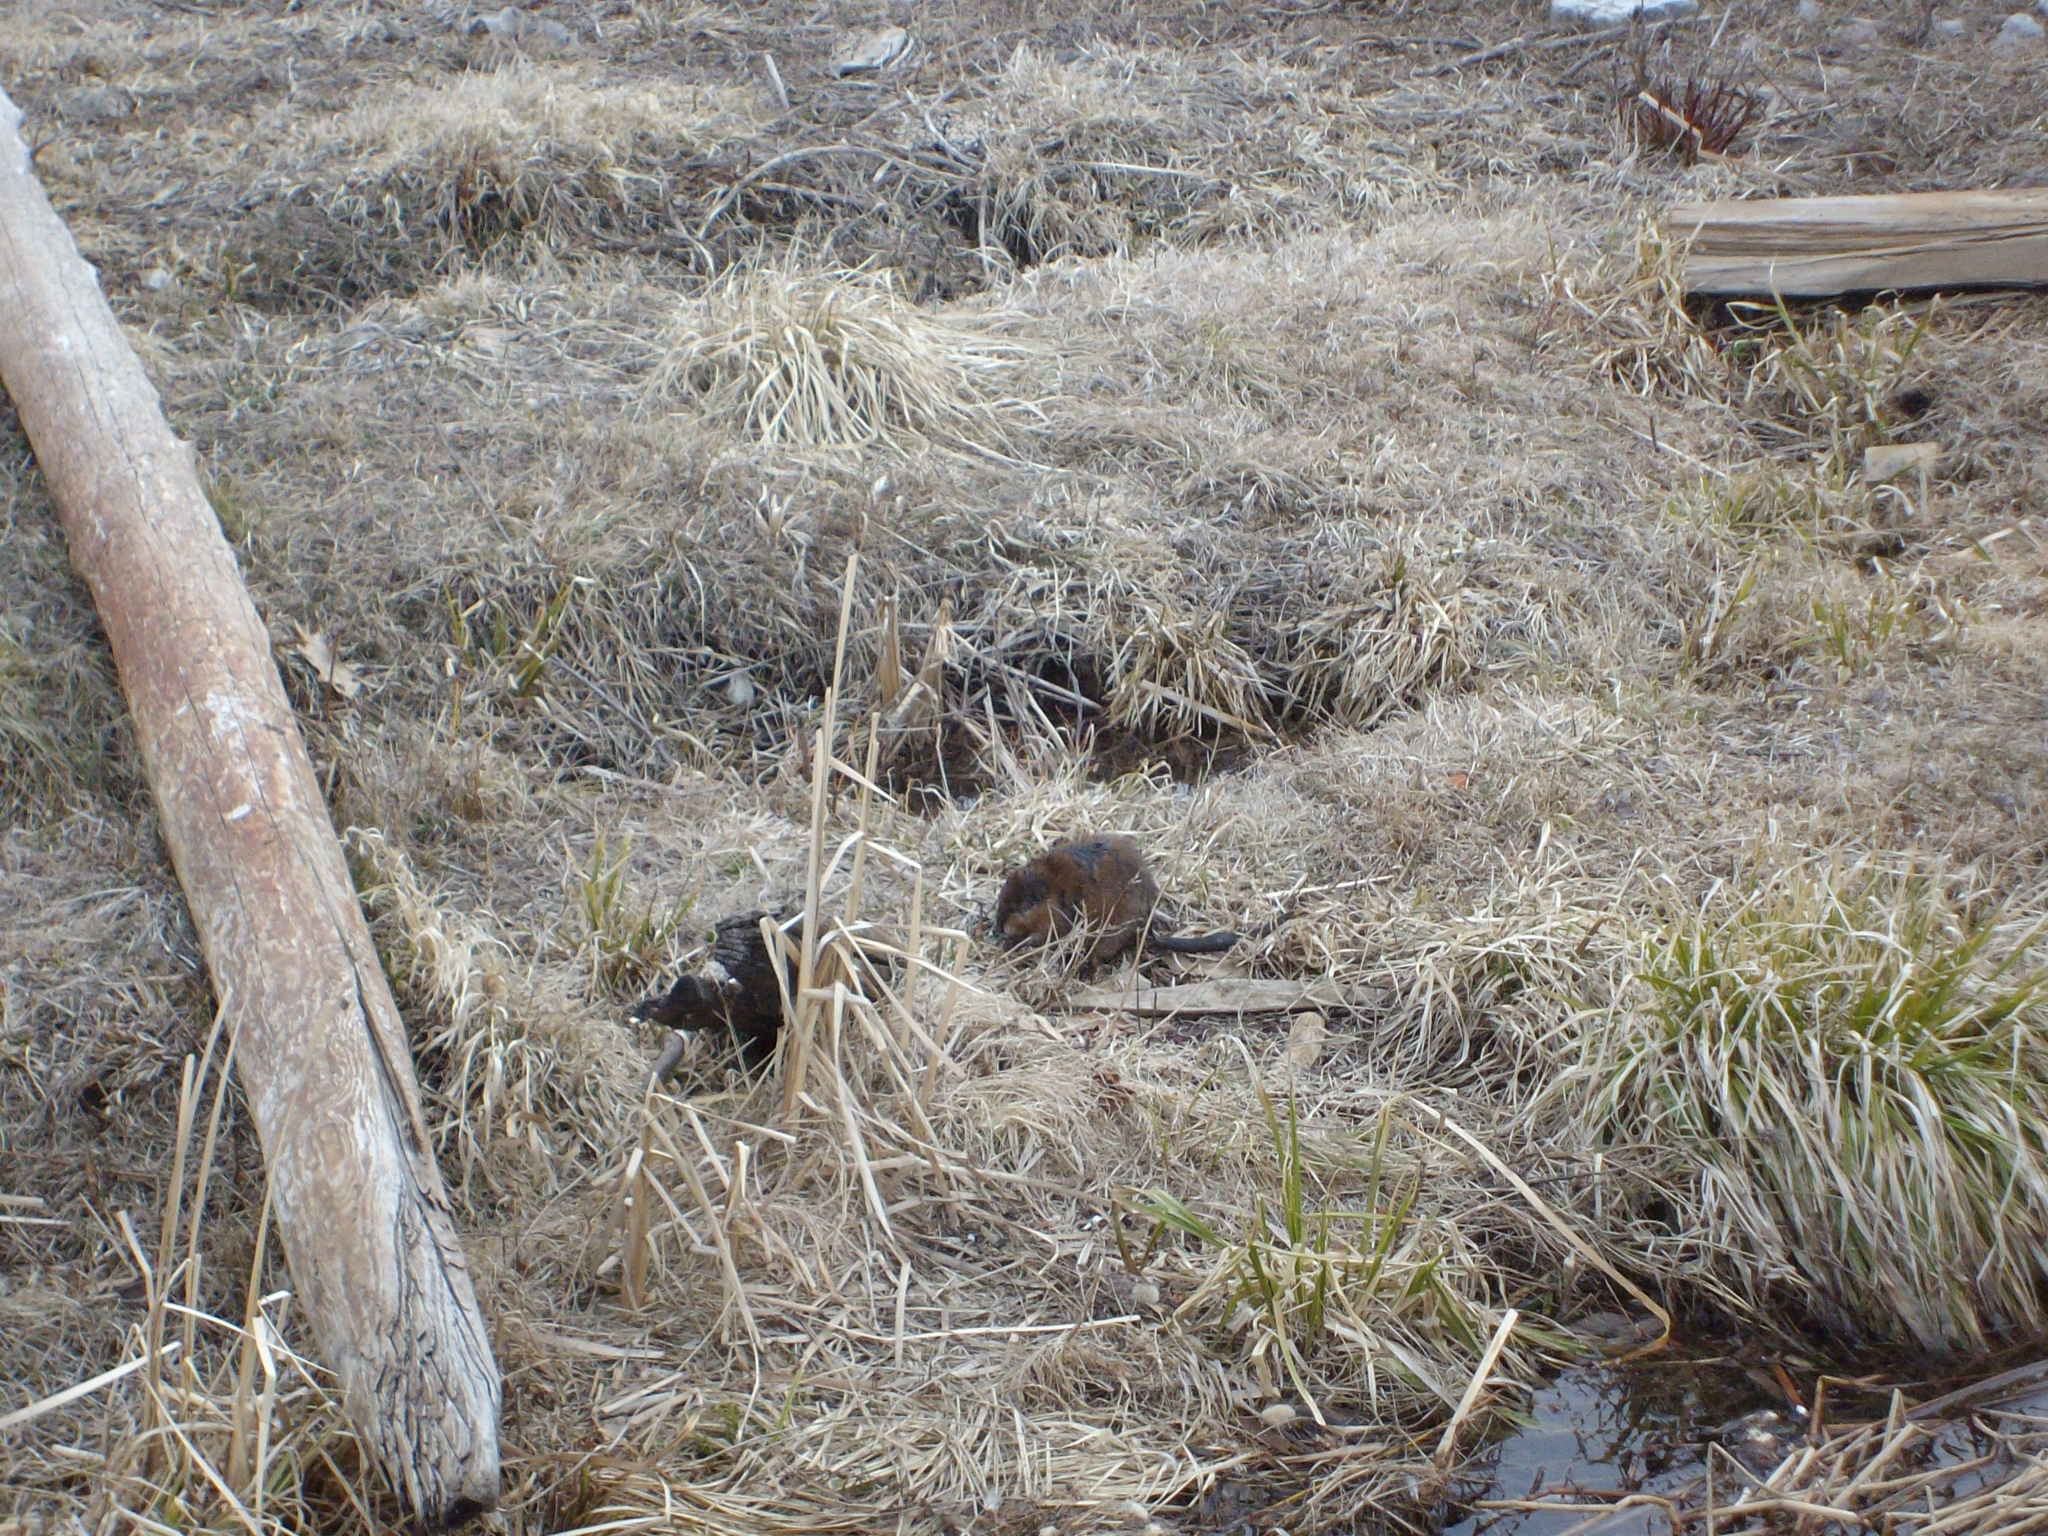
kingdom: Animalia
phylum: Chordata
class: Mammalia
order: Rodentia
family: Cricetidae
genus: Ondatra
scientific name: Ondatra zibethicus
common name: Muskrat
